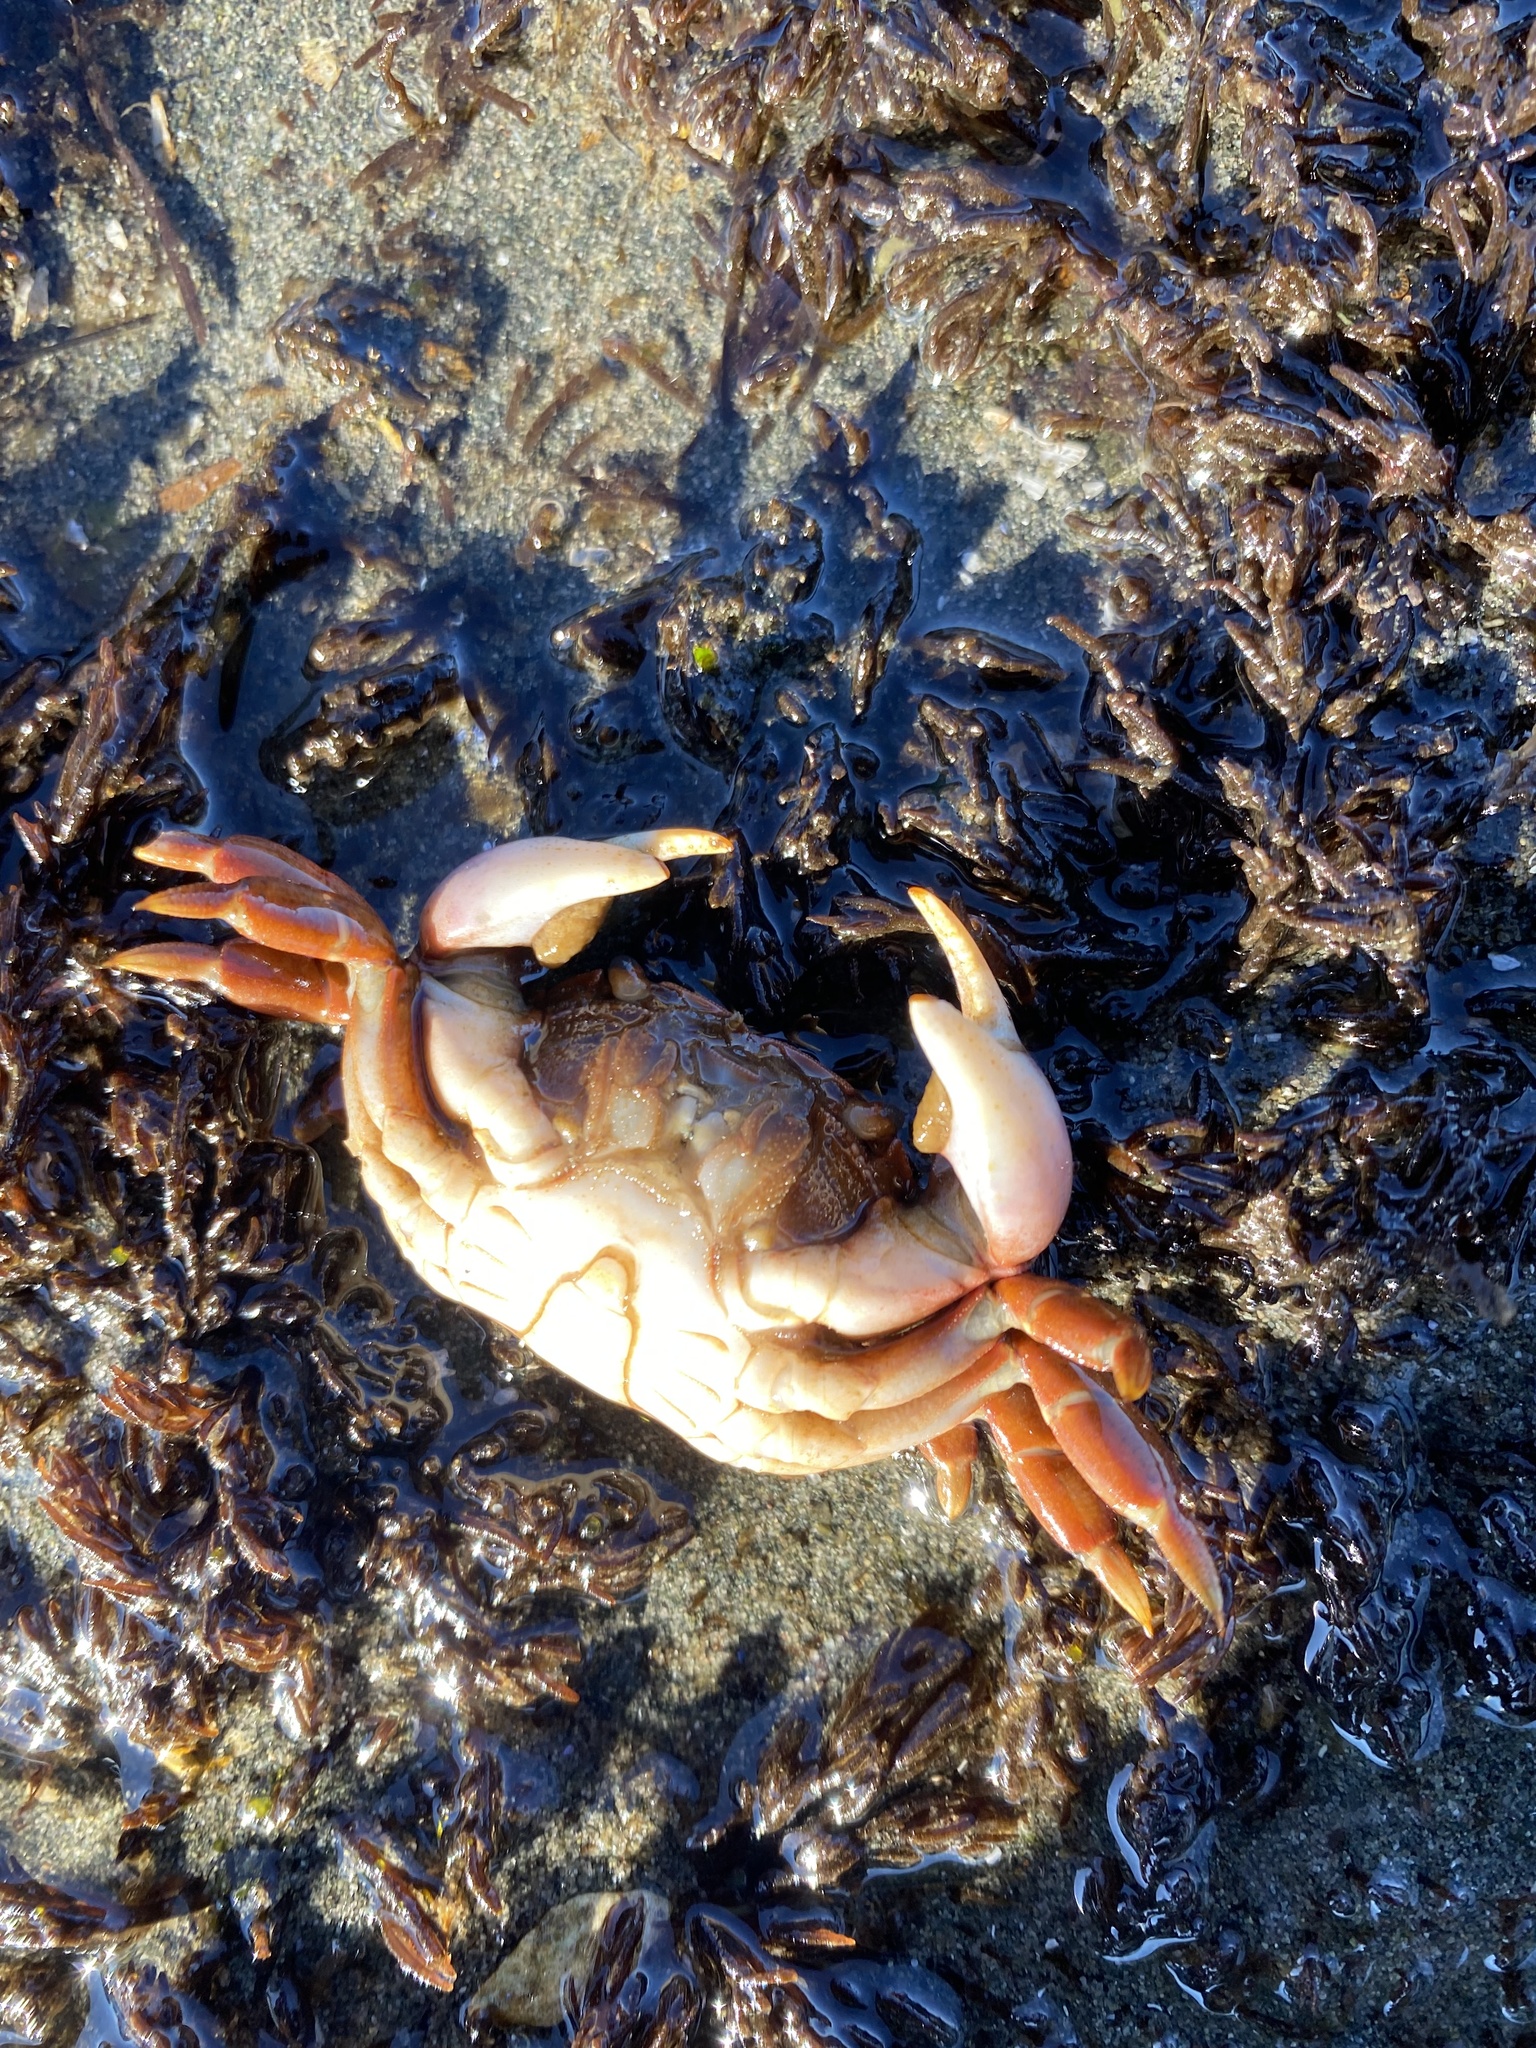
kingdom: Animalia
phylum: Arthropoda
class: Malacostraca
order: Decapoda
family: Varunidae
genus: Hemigrapsus
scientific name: Hemigrapsus nudus
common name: Purple shore crab
